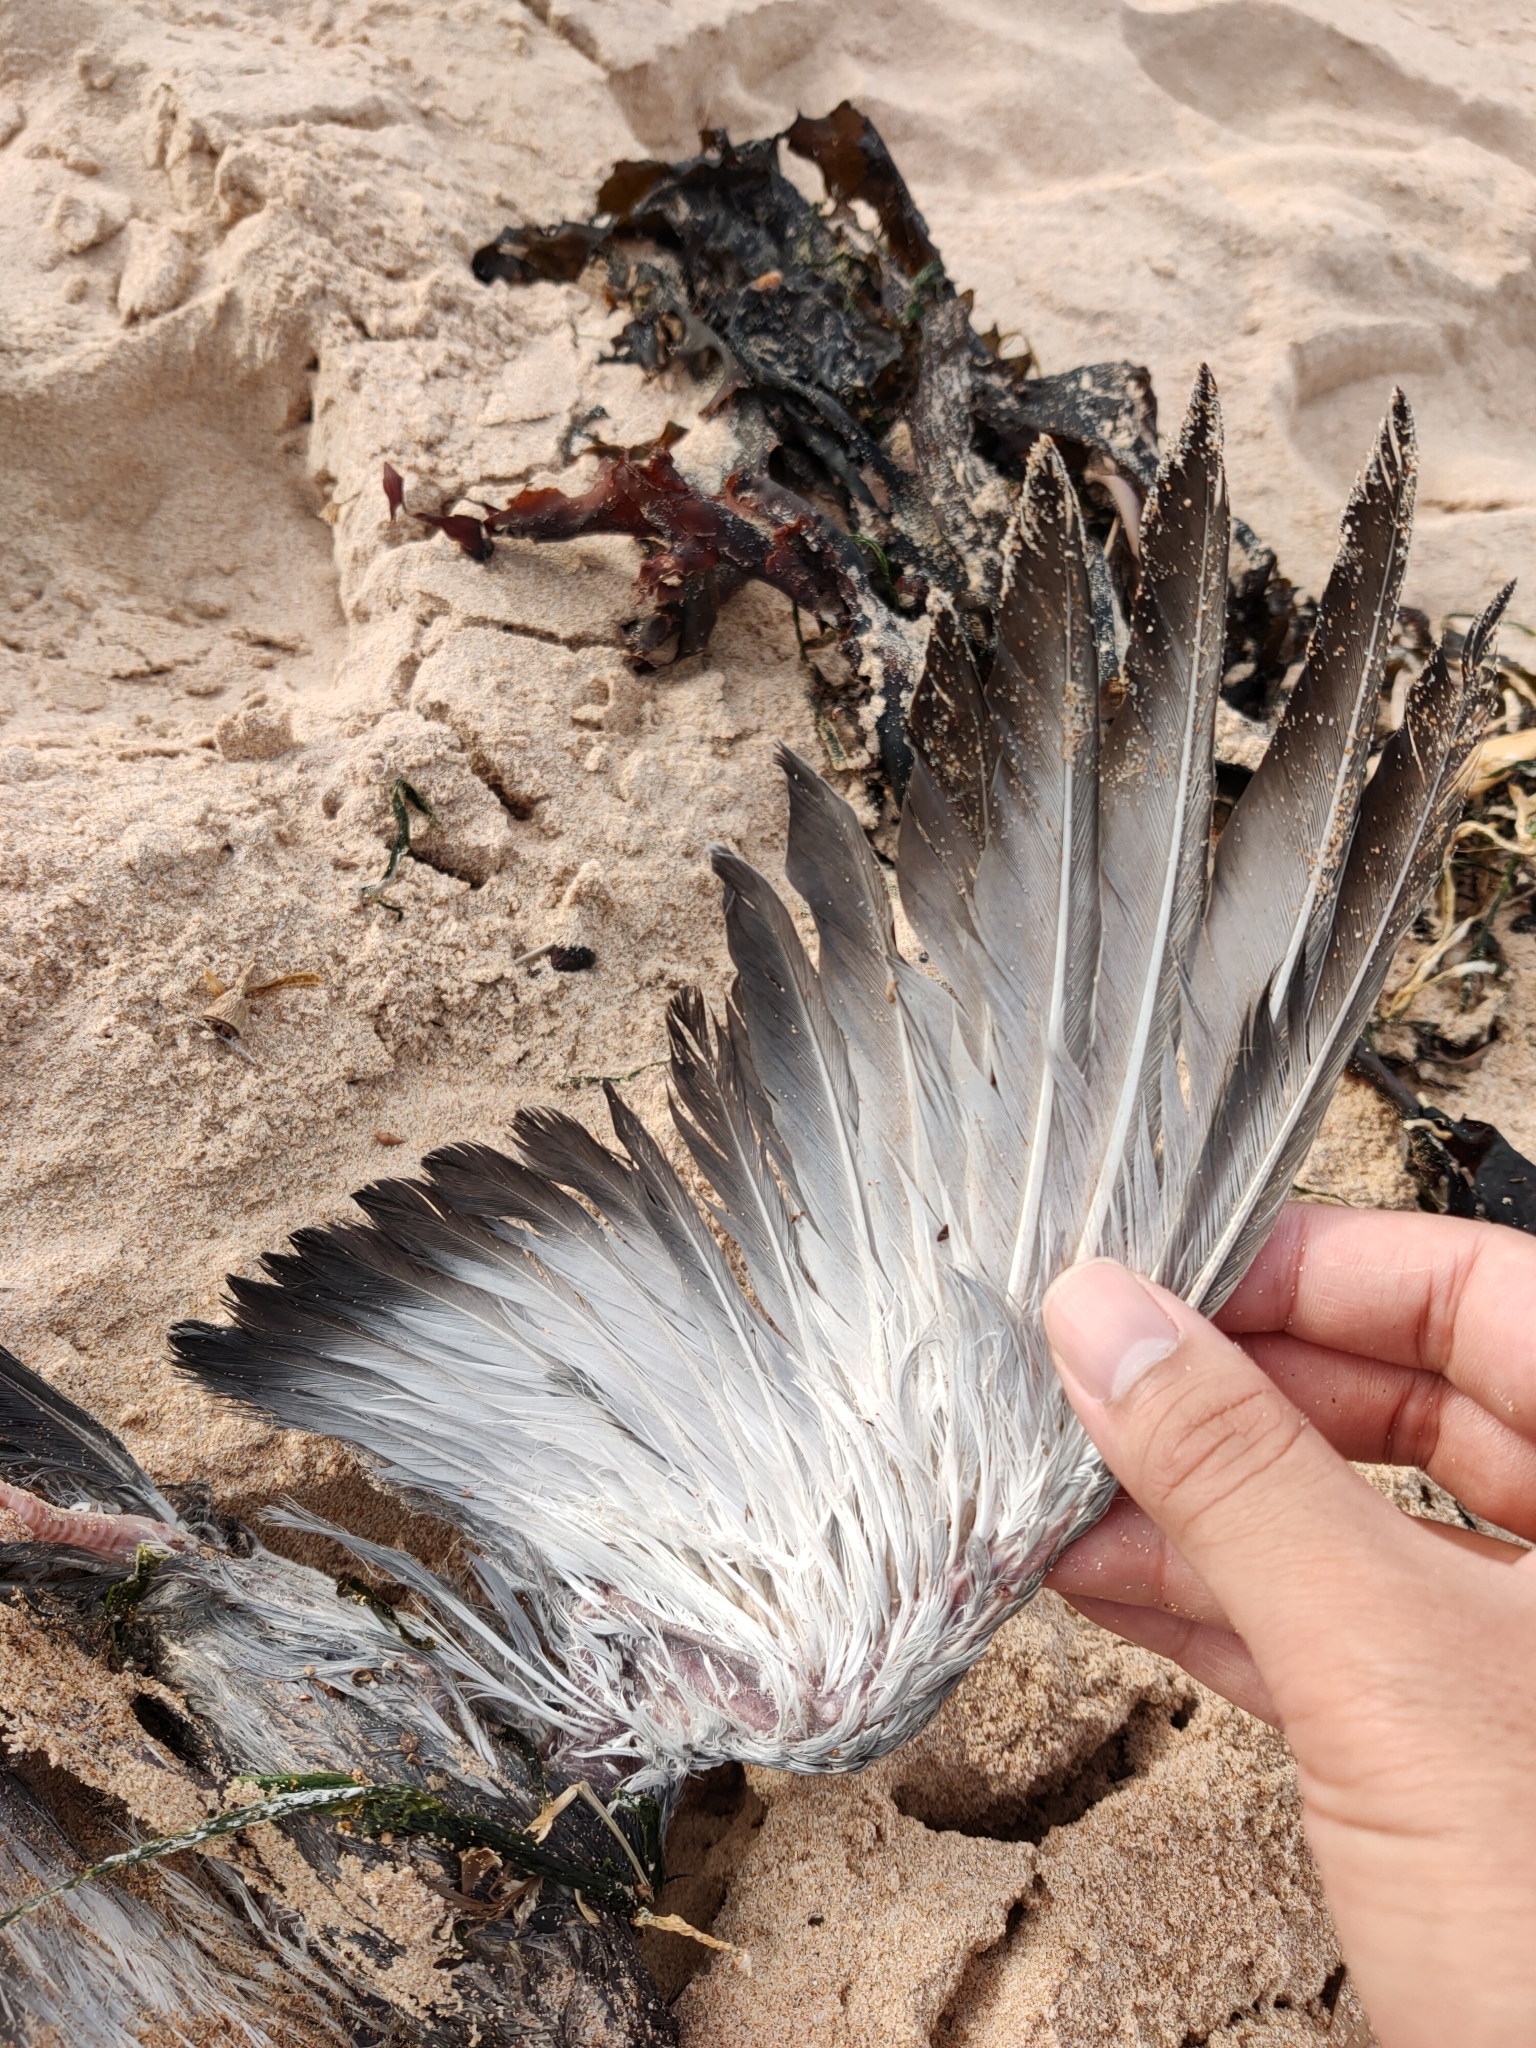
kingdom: Animalia
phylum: Chordata
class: Aves
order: Columbiformes
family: Columbidae
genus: Columba
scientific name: Columba livia
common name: Rock pigeon
